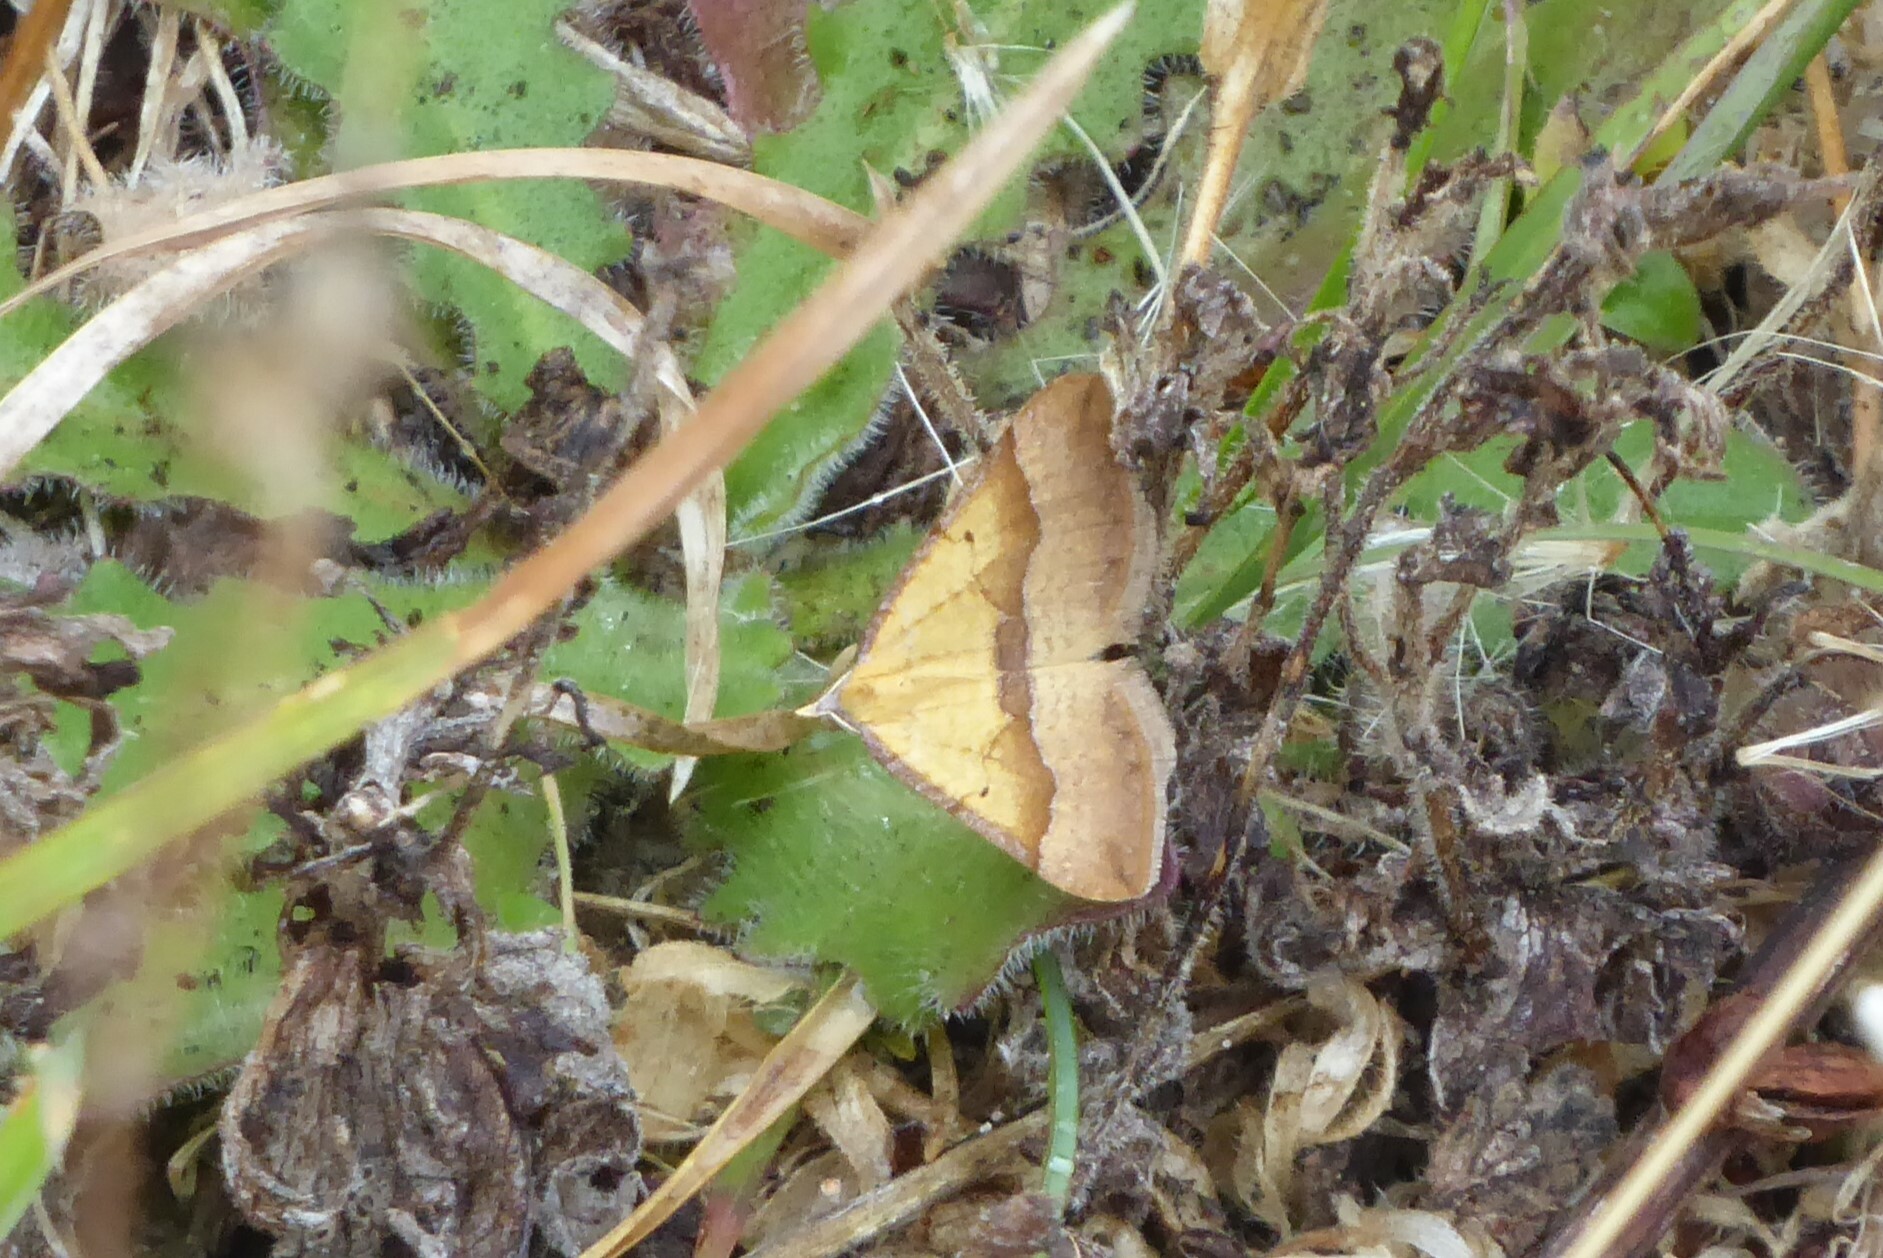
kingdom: Animalia
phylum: Arthropoda
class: Insecta
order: Lepidoptera
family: Geometridae
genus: Anachloris
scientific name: Anachloris subochraria
